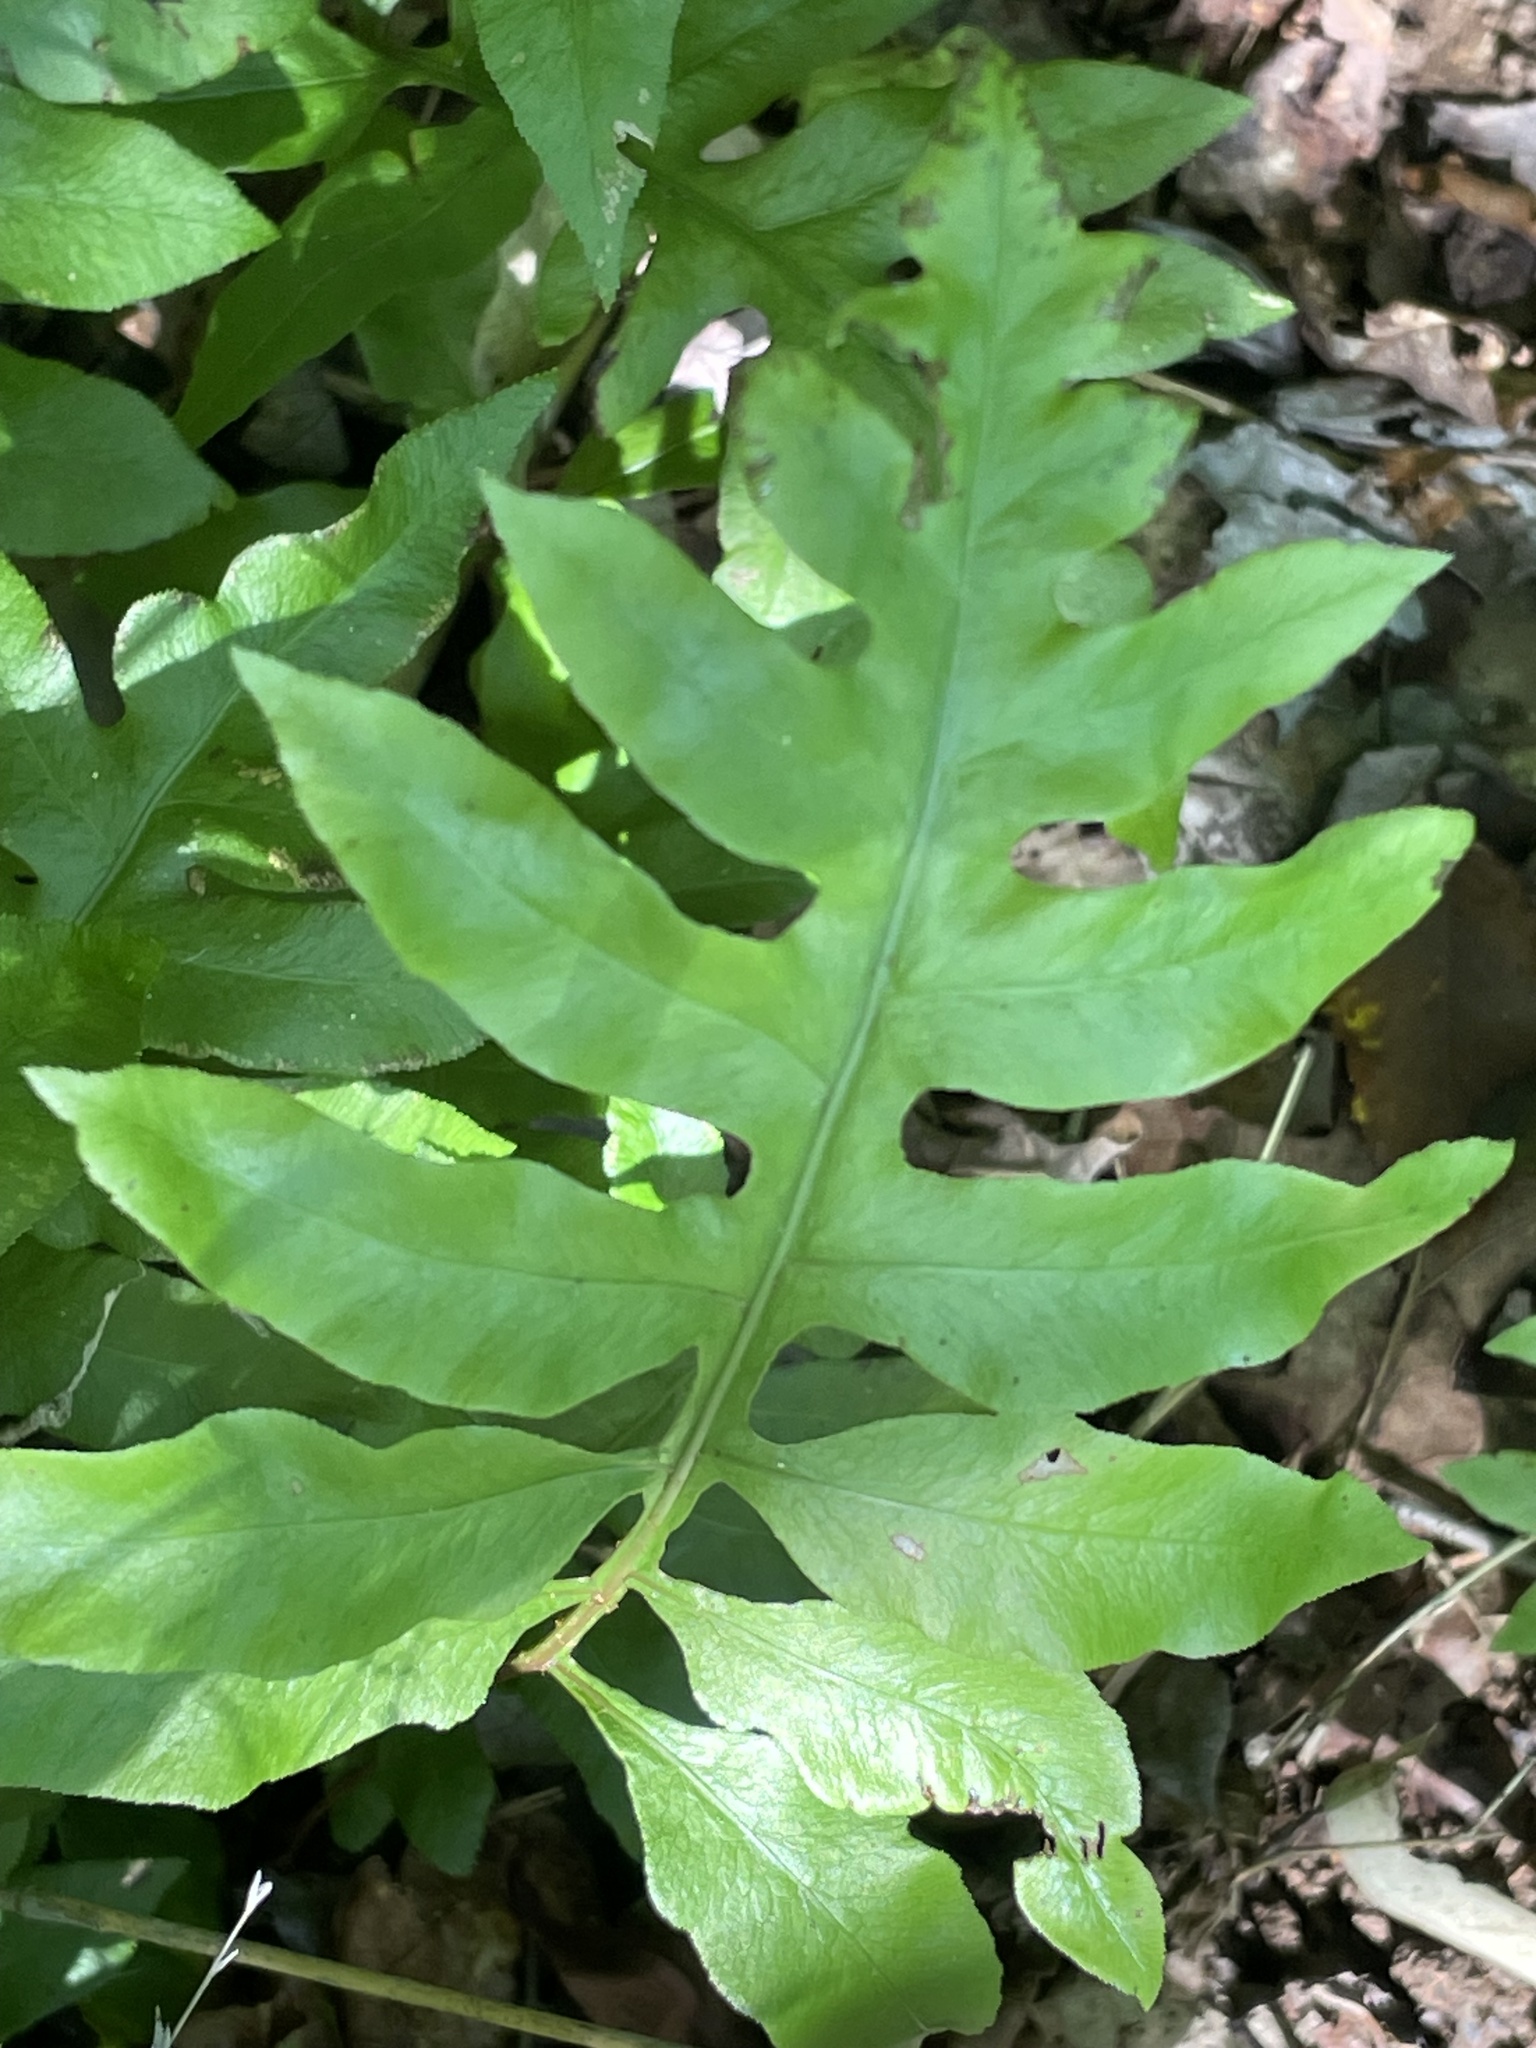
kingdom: Plantae
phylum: Tracheophyta
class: Polypodiopsida
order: Polypodiales
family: Blechnaceae
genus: Lorinseria
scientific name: Lorinseria areolata
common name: Dwarf chain fern
